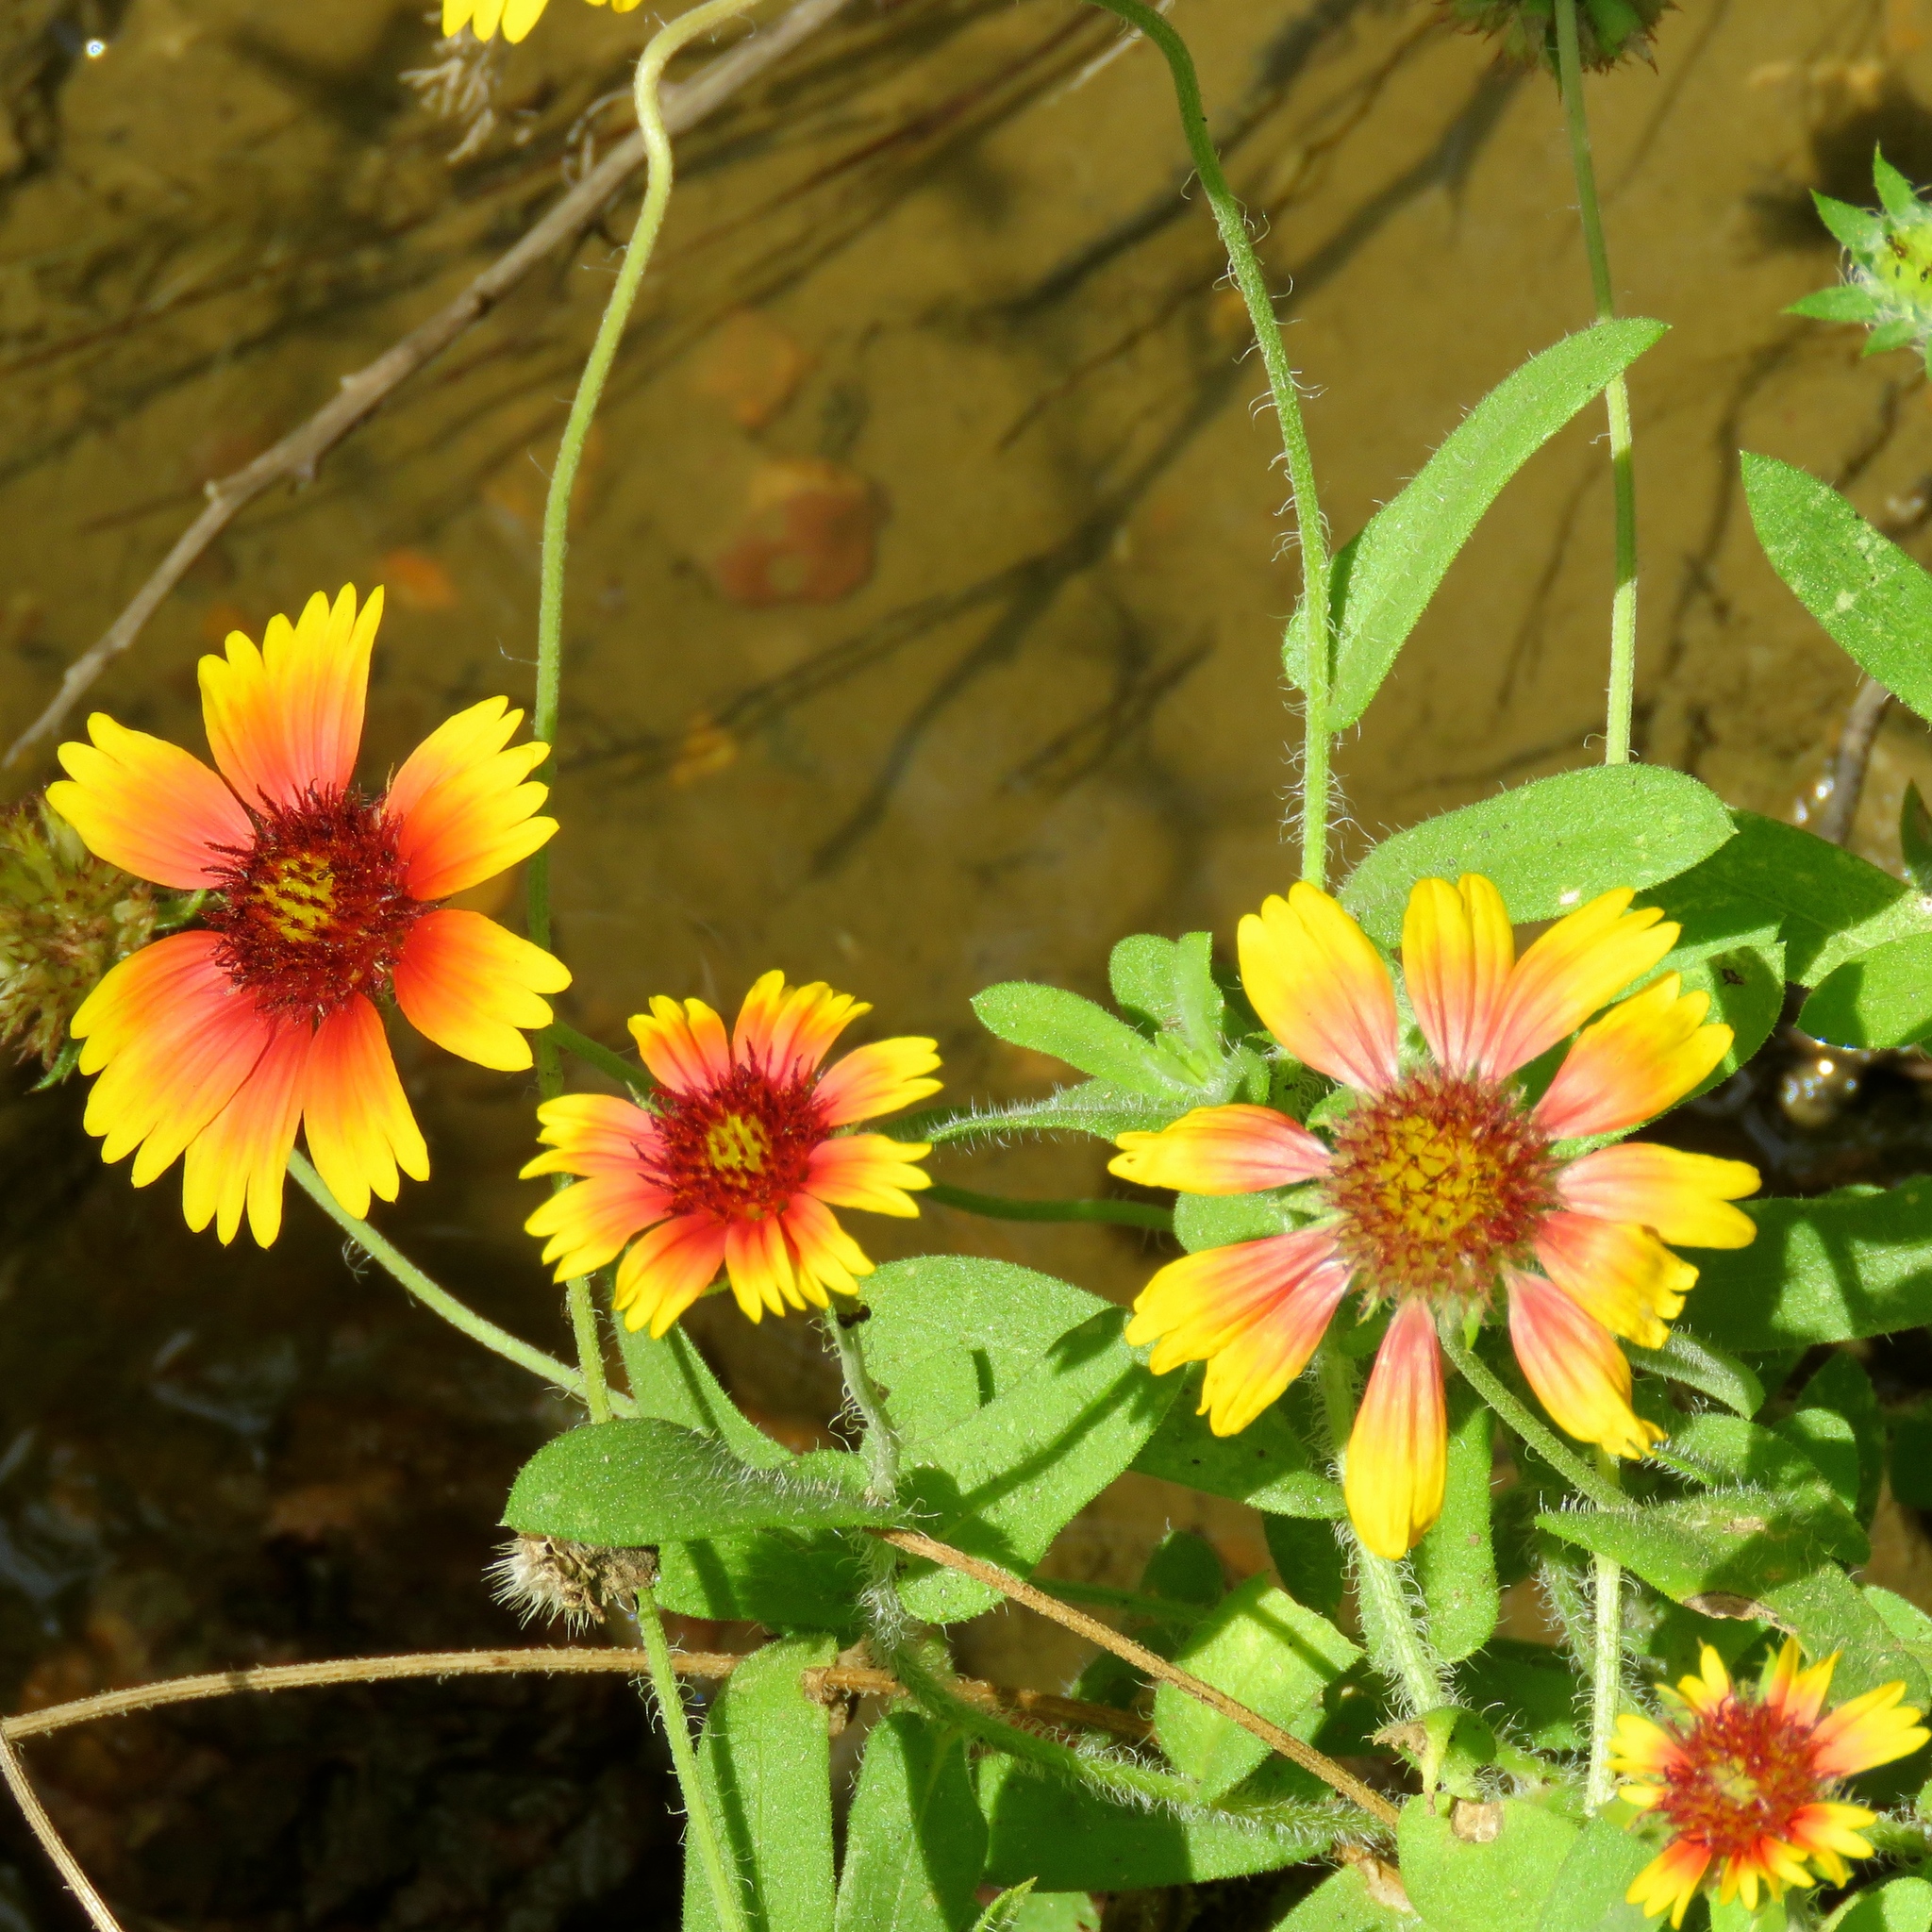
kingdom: Plantae
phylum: Tracheophyta
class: Magnoliopsida
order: Asterales
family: Asteraceae
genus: Gaillardia
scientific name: Gaillardia pulchella
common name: Firewheel
